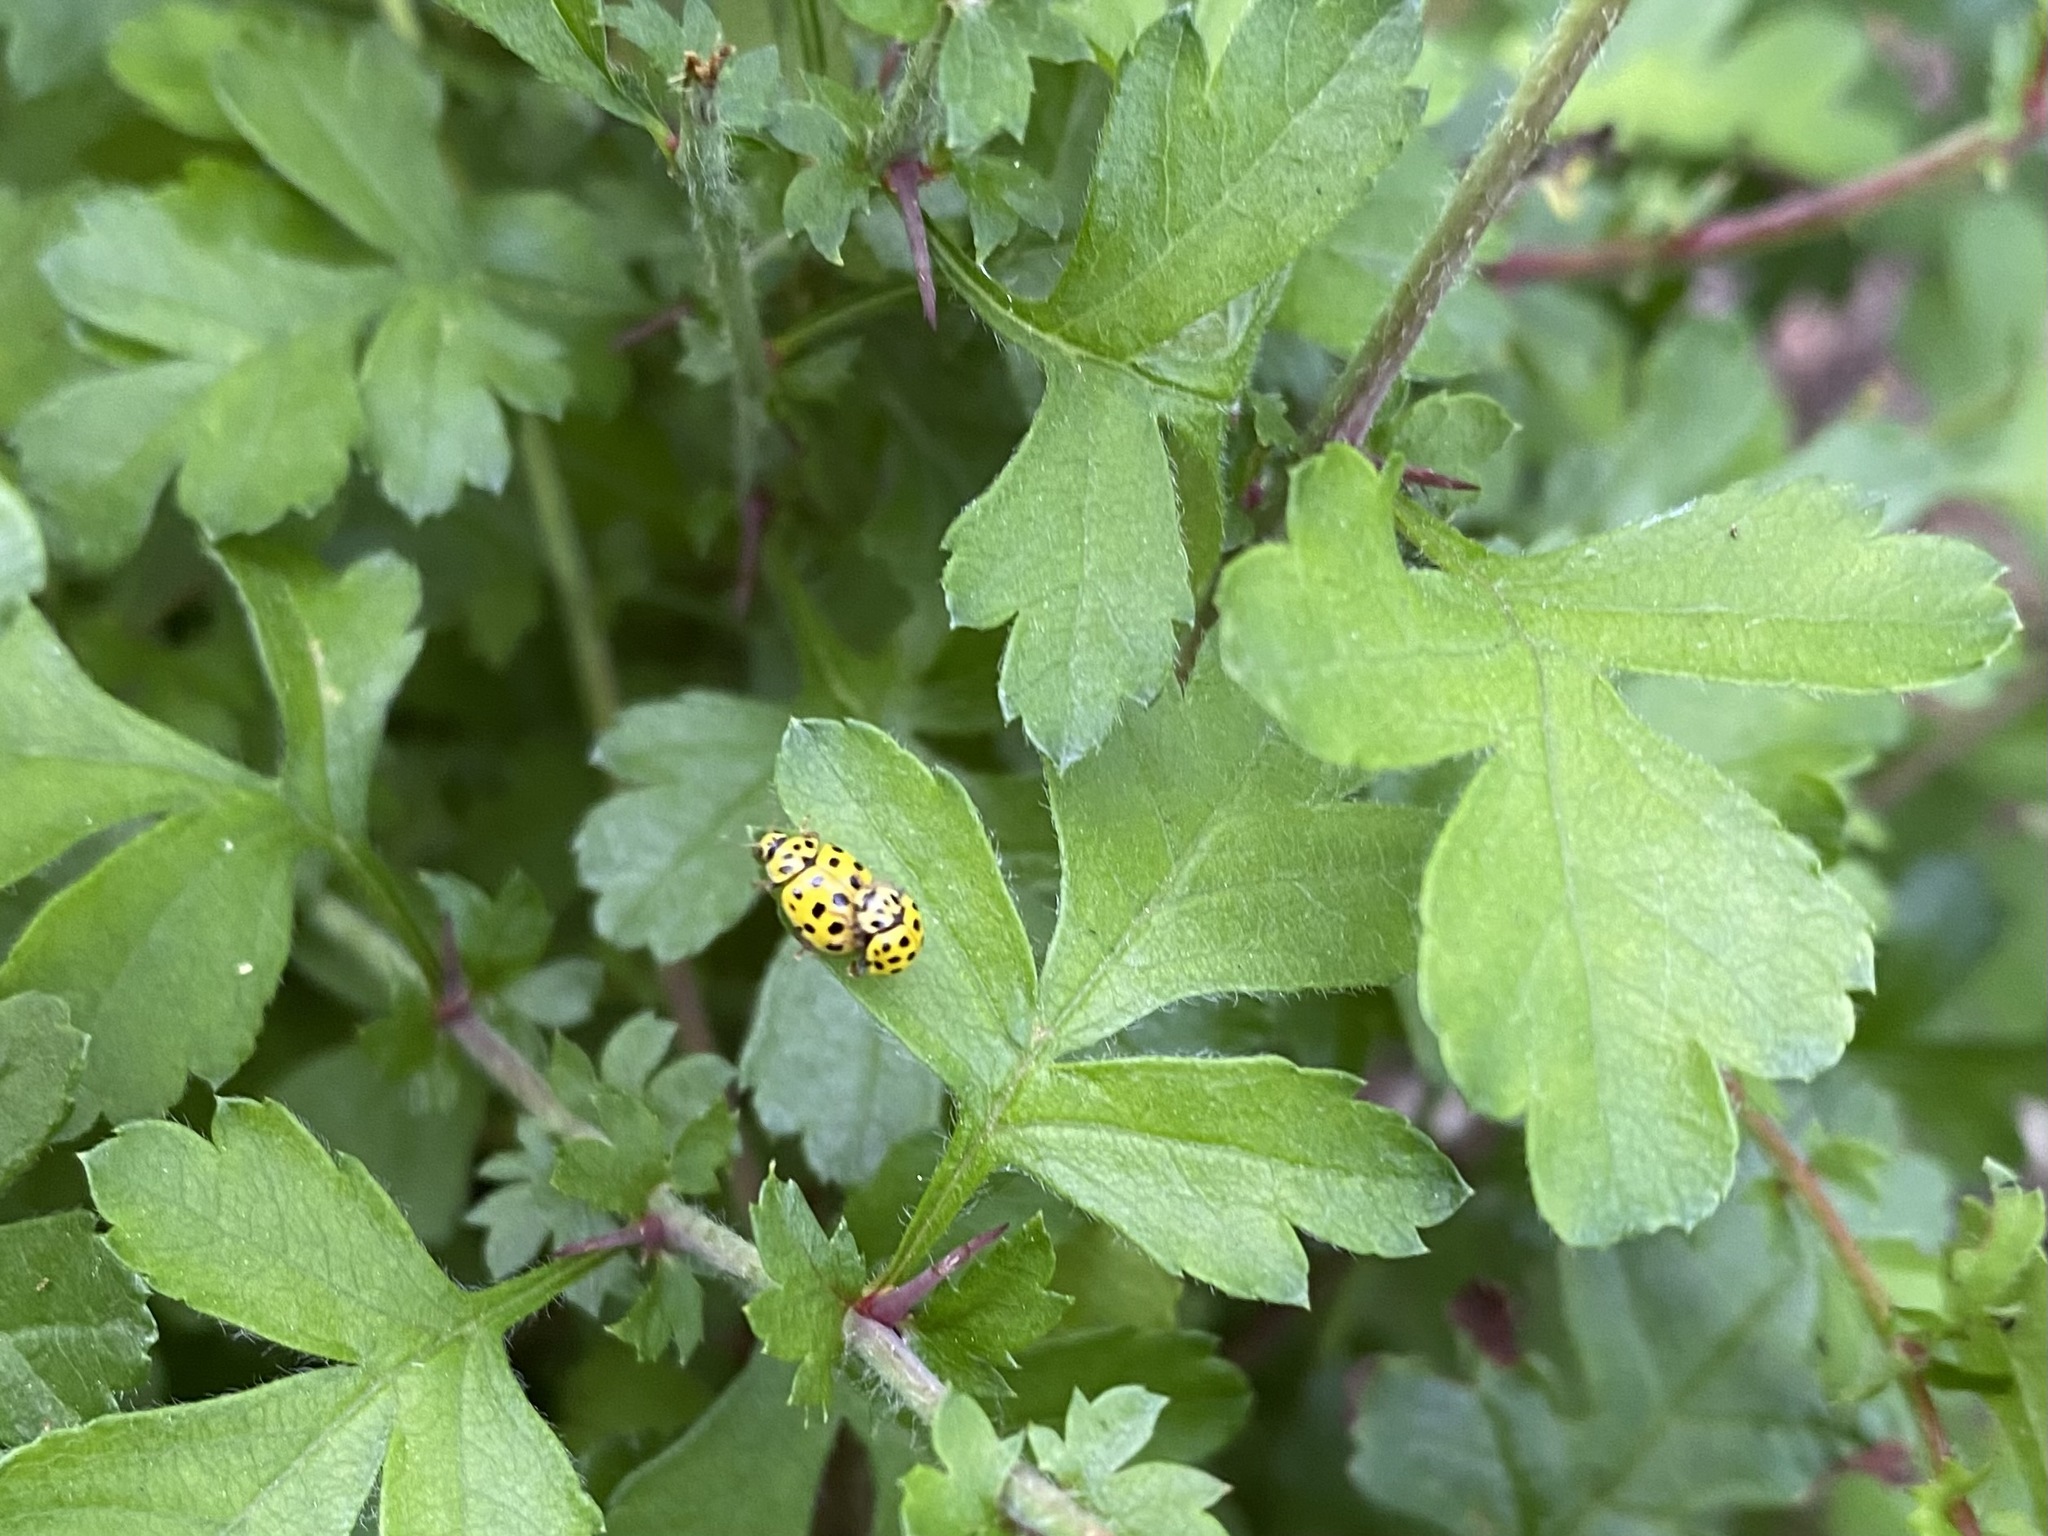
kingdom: Animalia
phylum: Arthropoda
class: Insecta
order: Coleoptera
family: Coccinellidae
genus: Psyllobora
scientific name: Psyllobora vigintiduopunctata
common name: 22-spot ladybird
